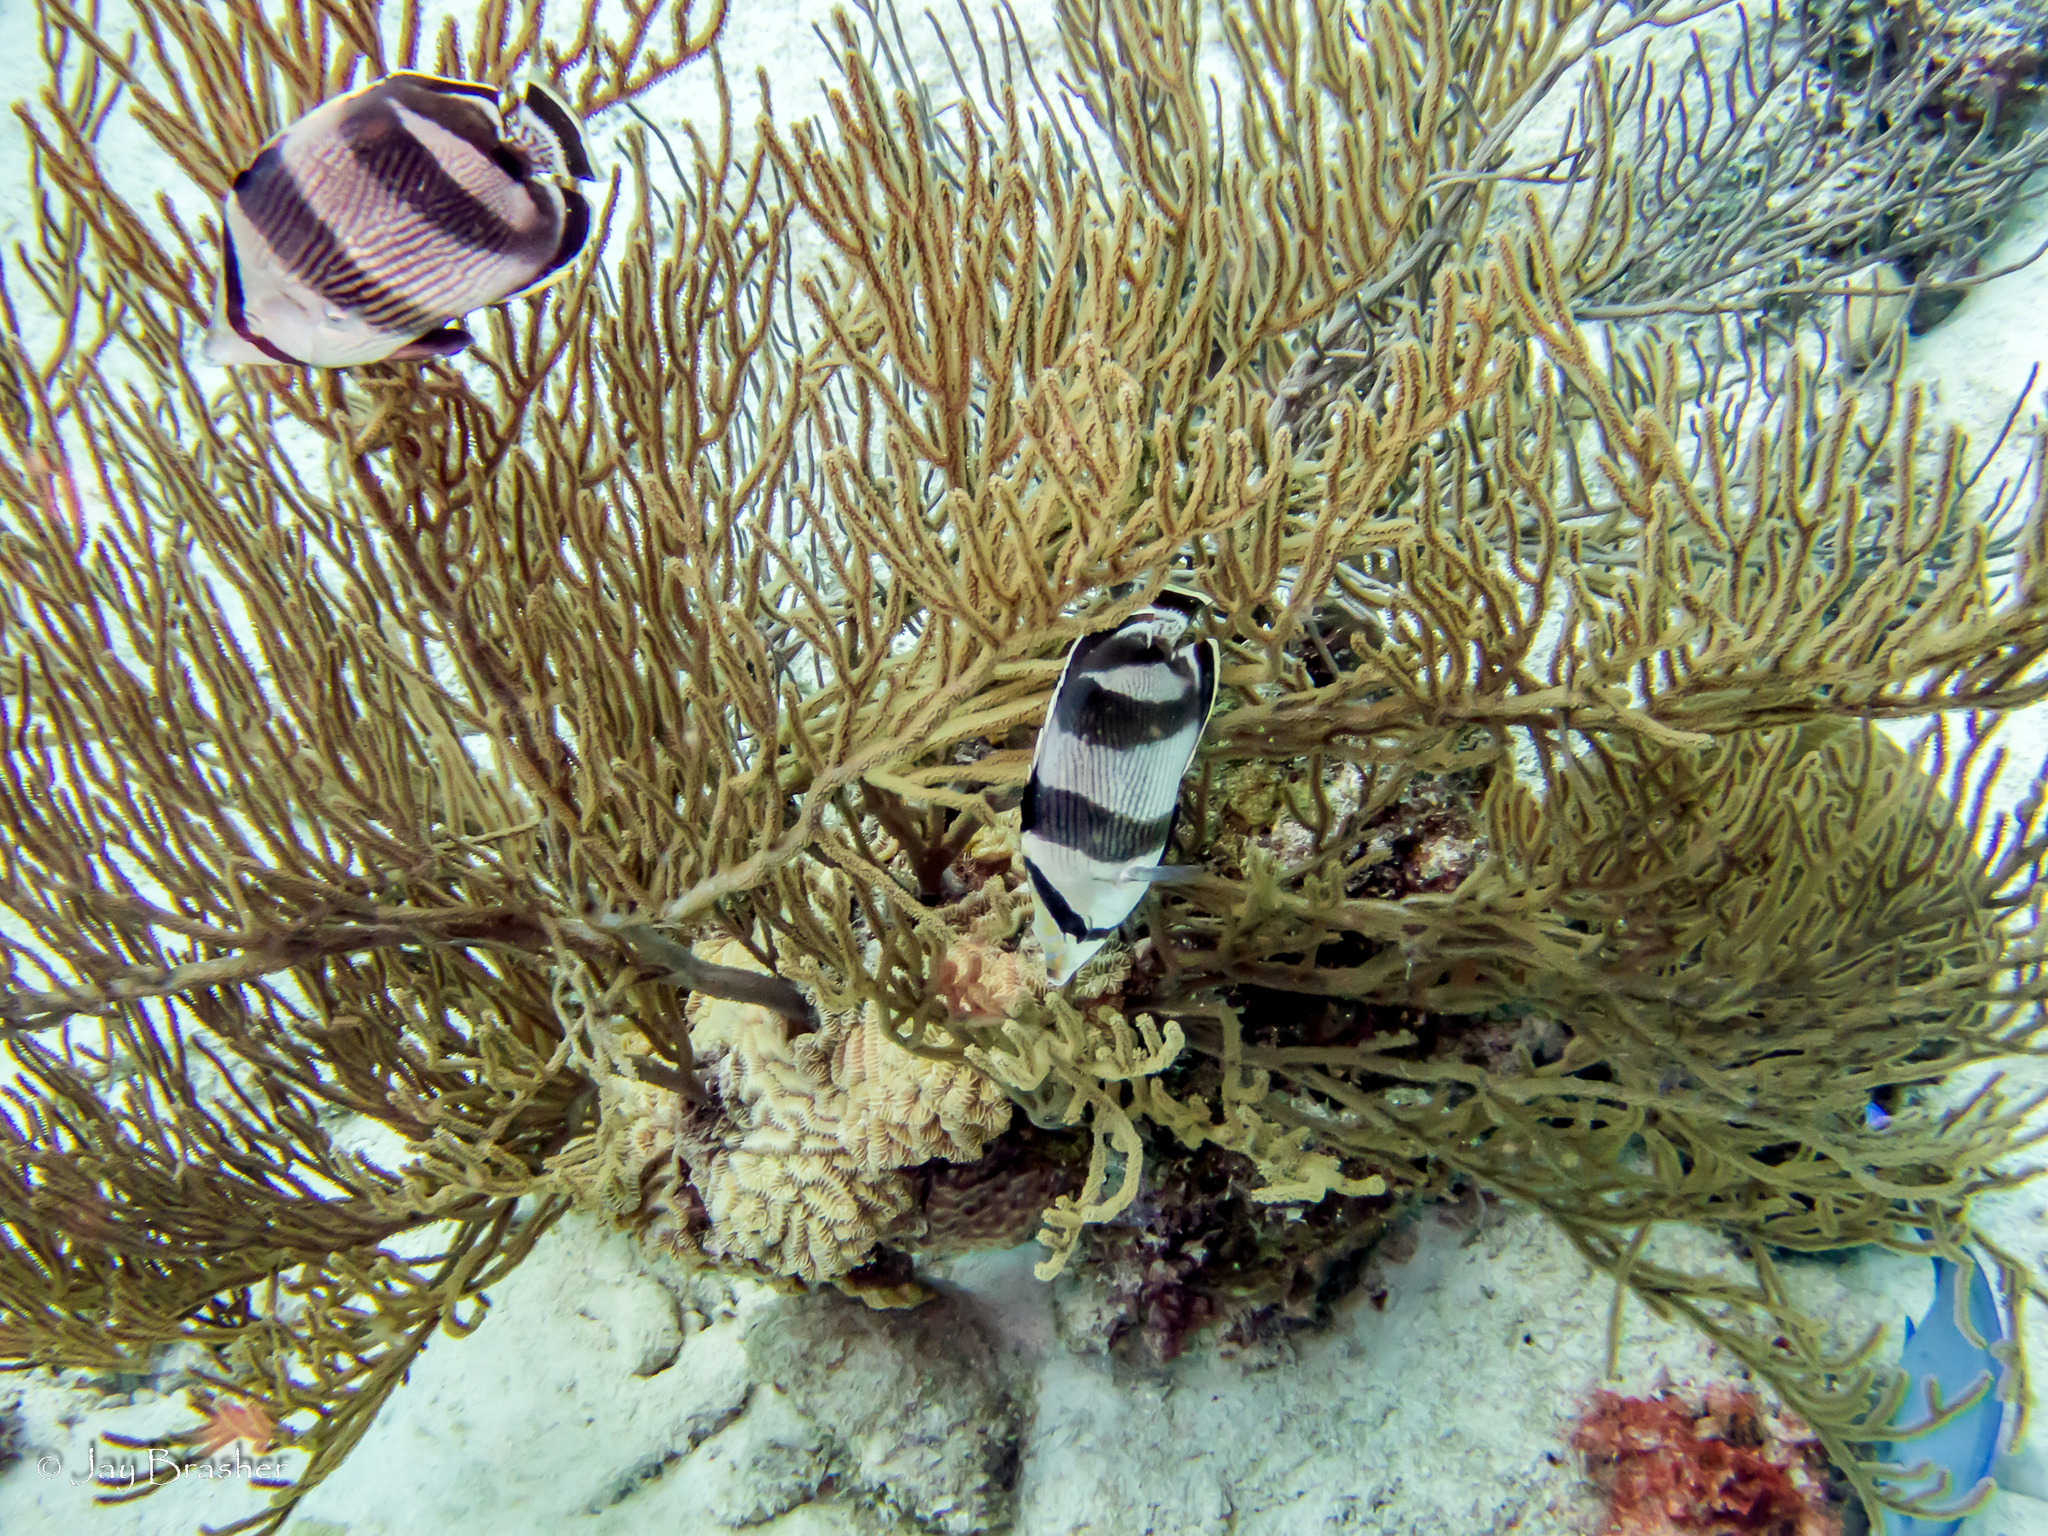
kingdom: Animalia
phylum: Cnidaria
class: Anthozoa
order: Scleractinia
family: Meandrinidae
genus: Meandrina
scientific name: Meandrina meandrites
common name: Maze coral
